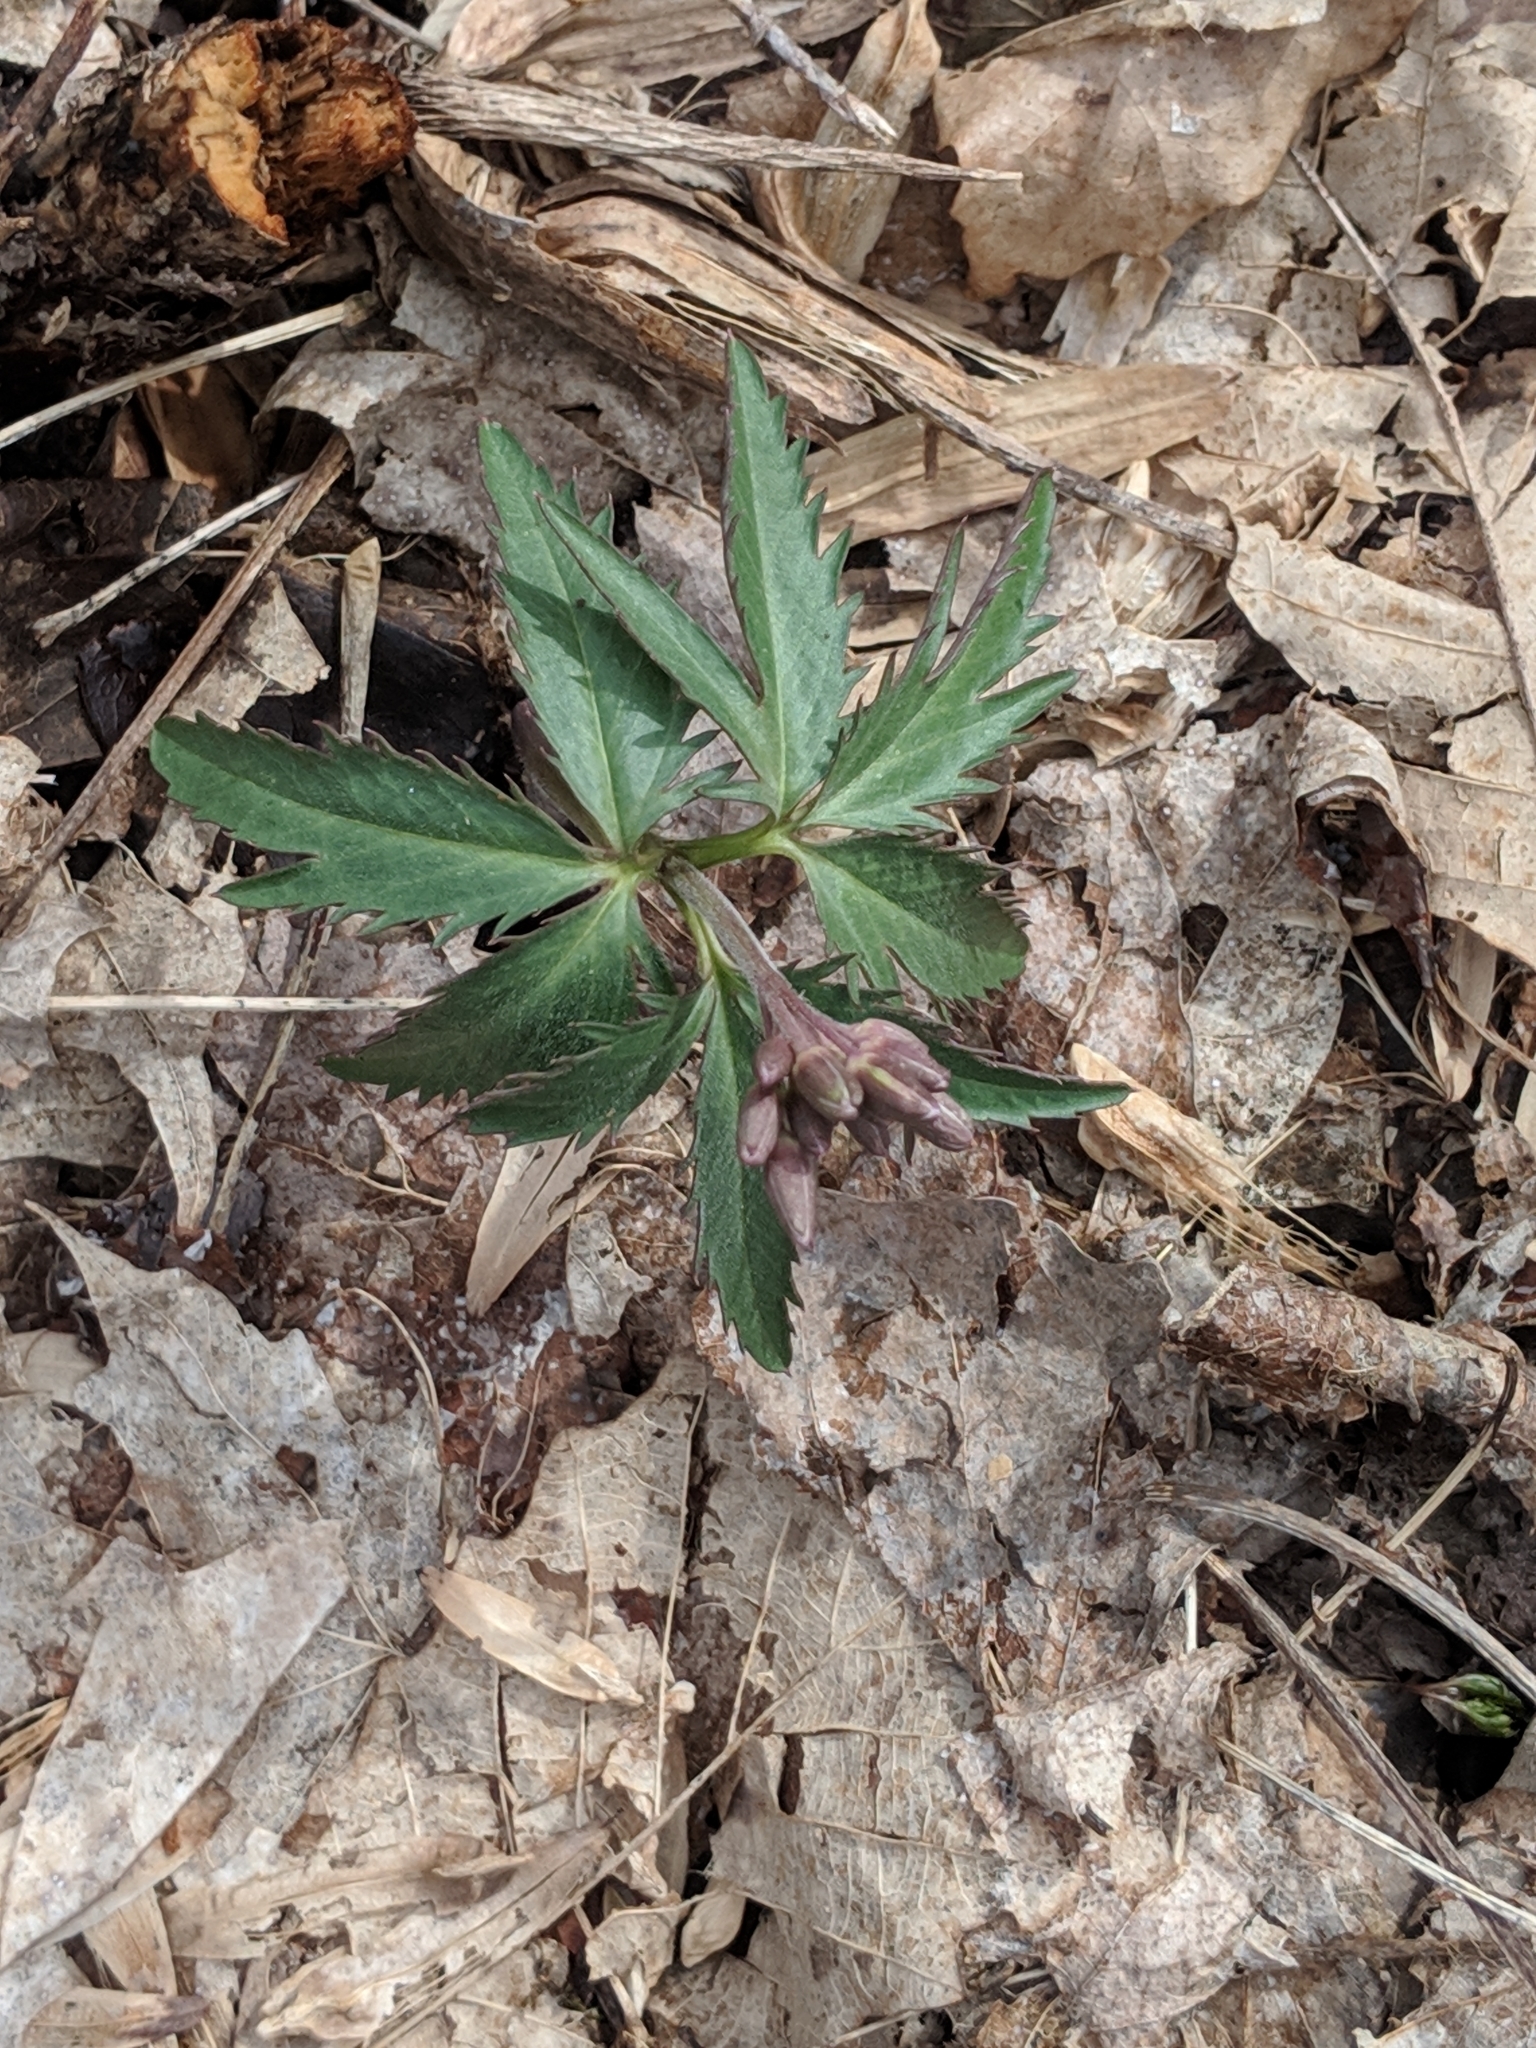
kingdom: Plantae
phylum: Tracheophyta
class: Magnoliopsida
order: Brassicales
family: Brassicaceae
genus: Cardamine
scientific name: Cardamine concatenata
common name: Cut-leaf toothcup
